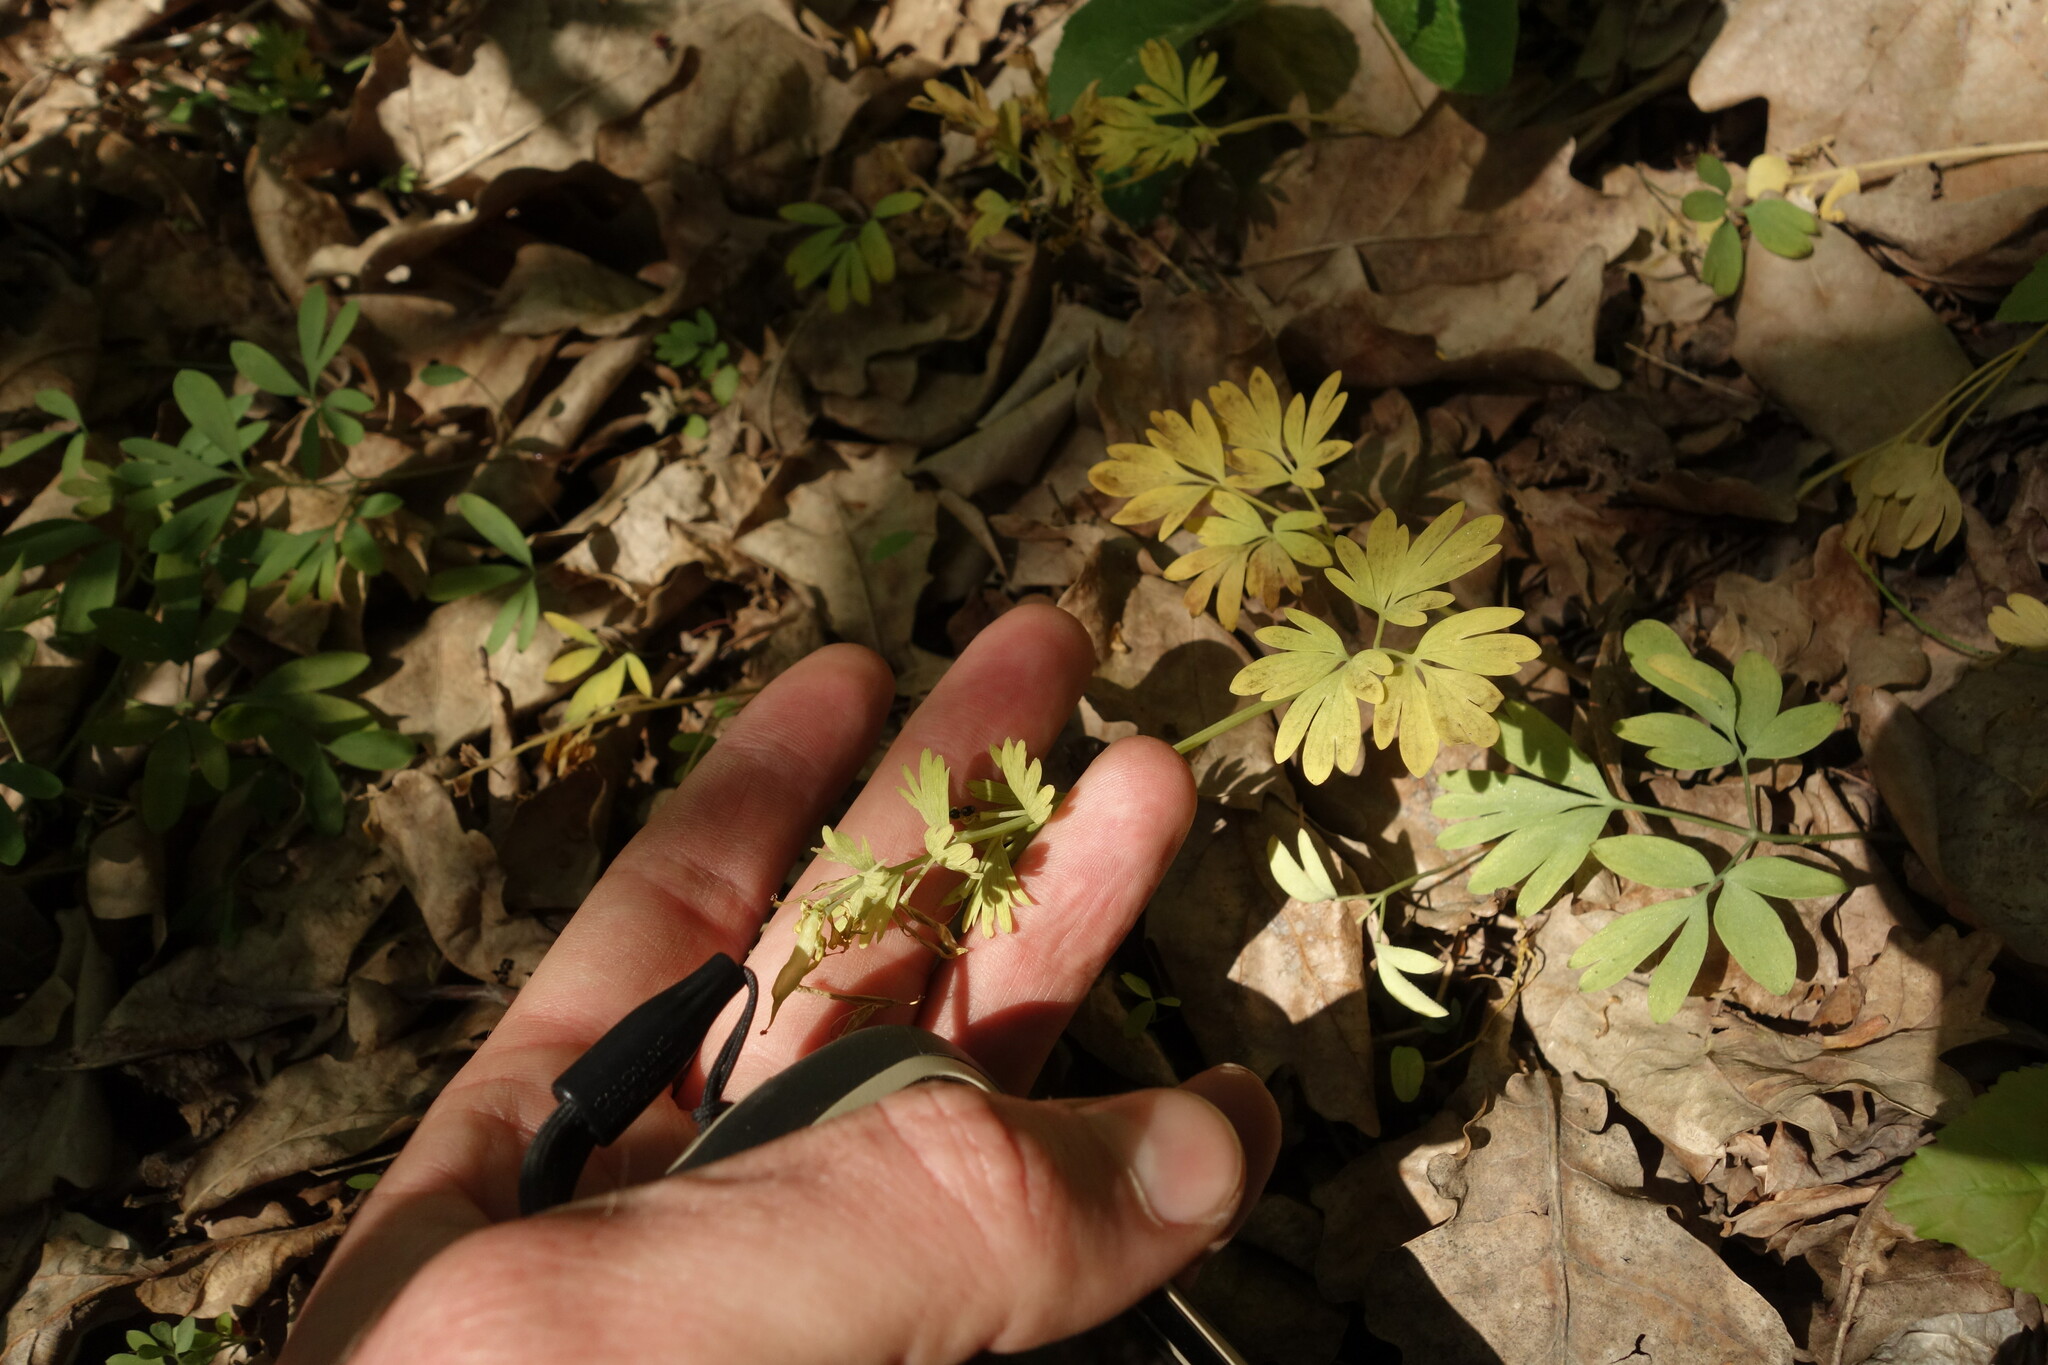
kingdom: Plantae
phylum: Tracheophyta
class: Magnoliopsida
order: Ranunculales
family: Papaveraceae
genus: Corydalis
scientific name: Corydalis solida
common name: Bird-in-a-bush
